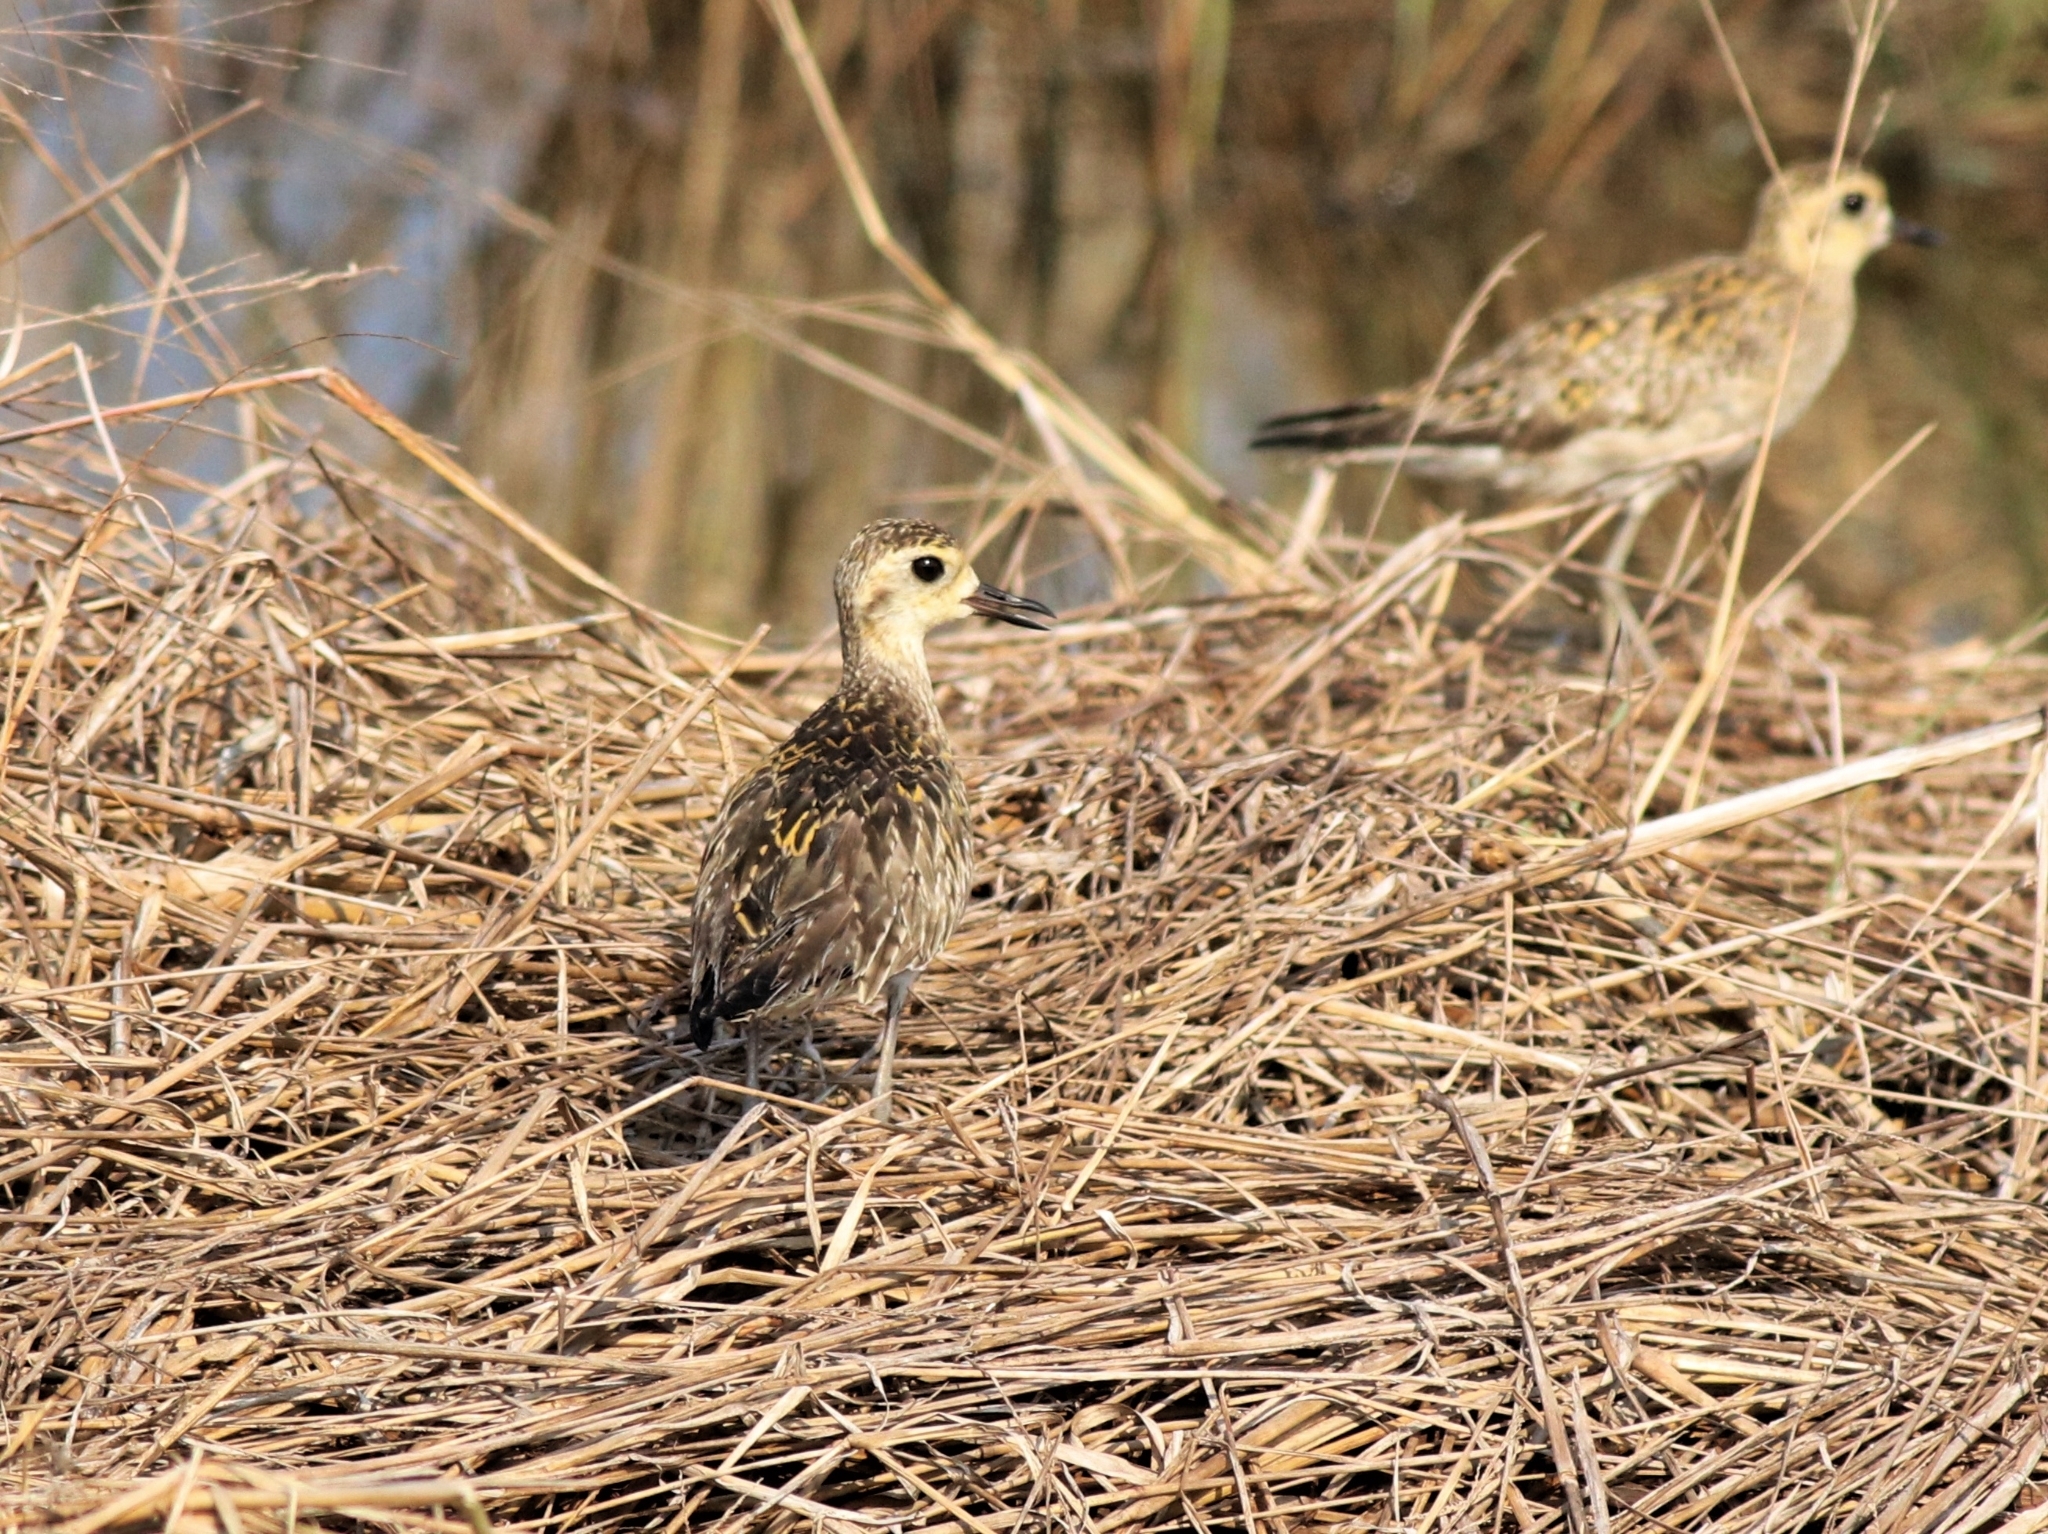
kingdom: Animalia
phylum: Chordata
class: Aves
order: Charadriiformes
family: Charadriidae
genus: Pluvialis
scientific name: Pluvialis fulva
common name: Pacific golden plover
